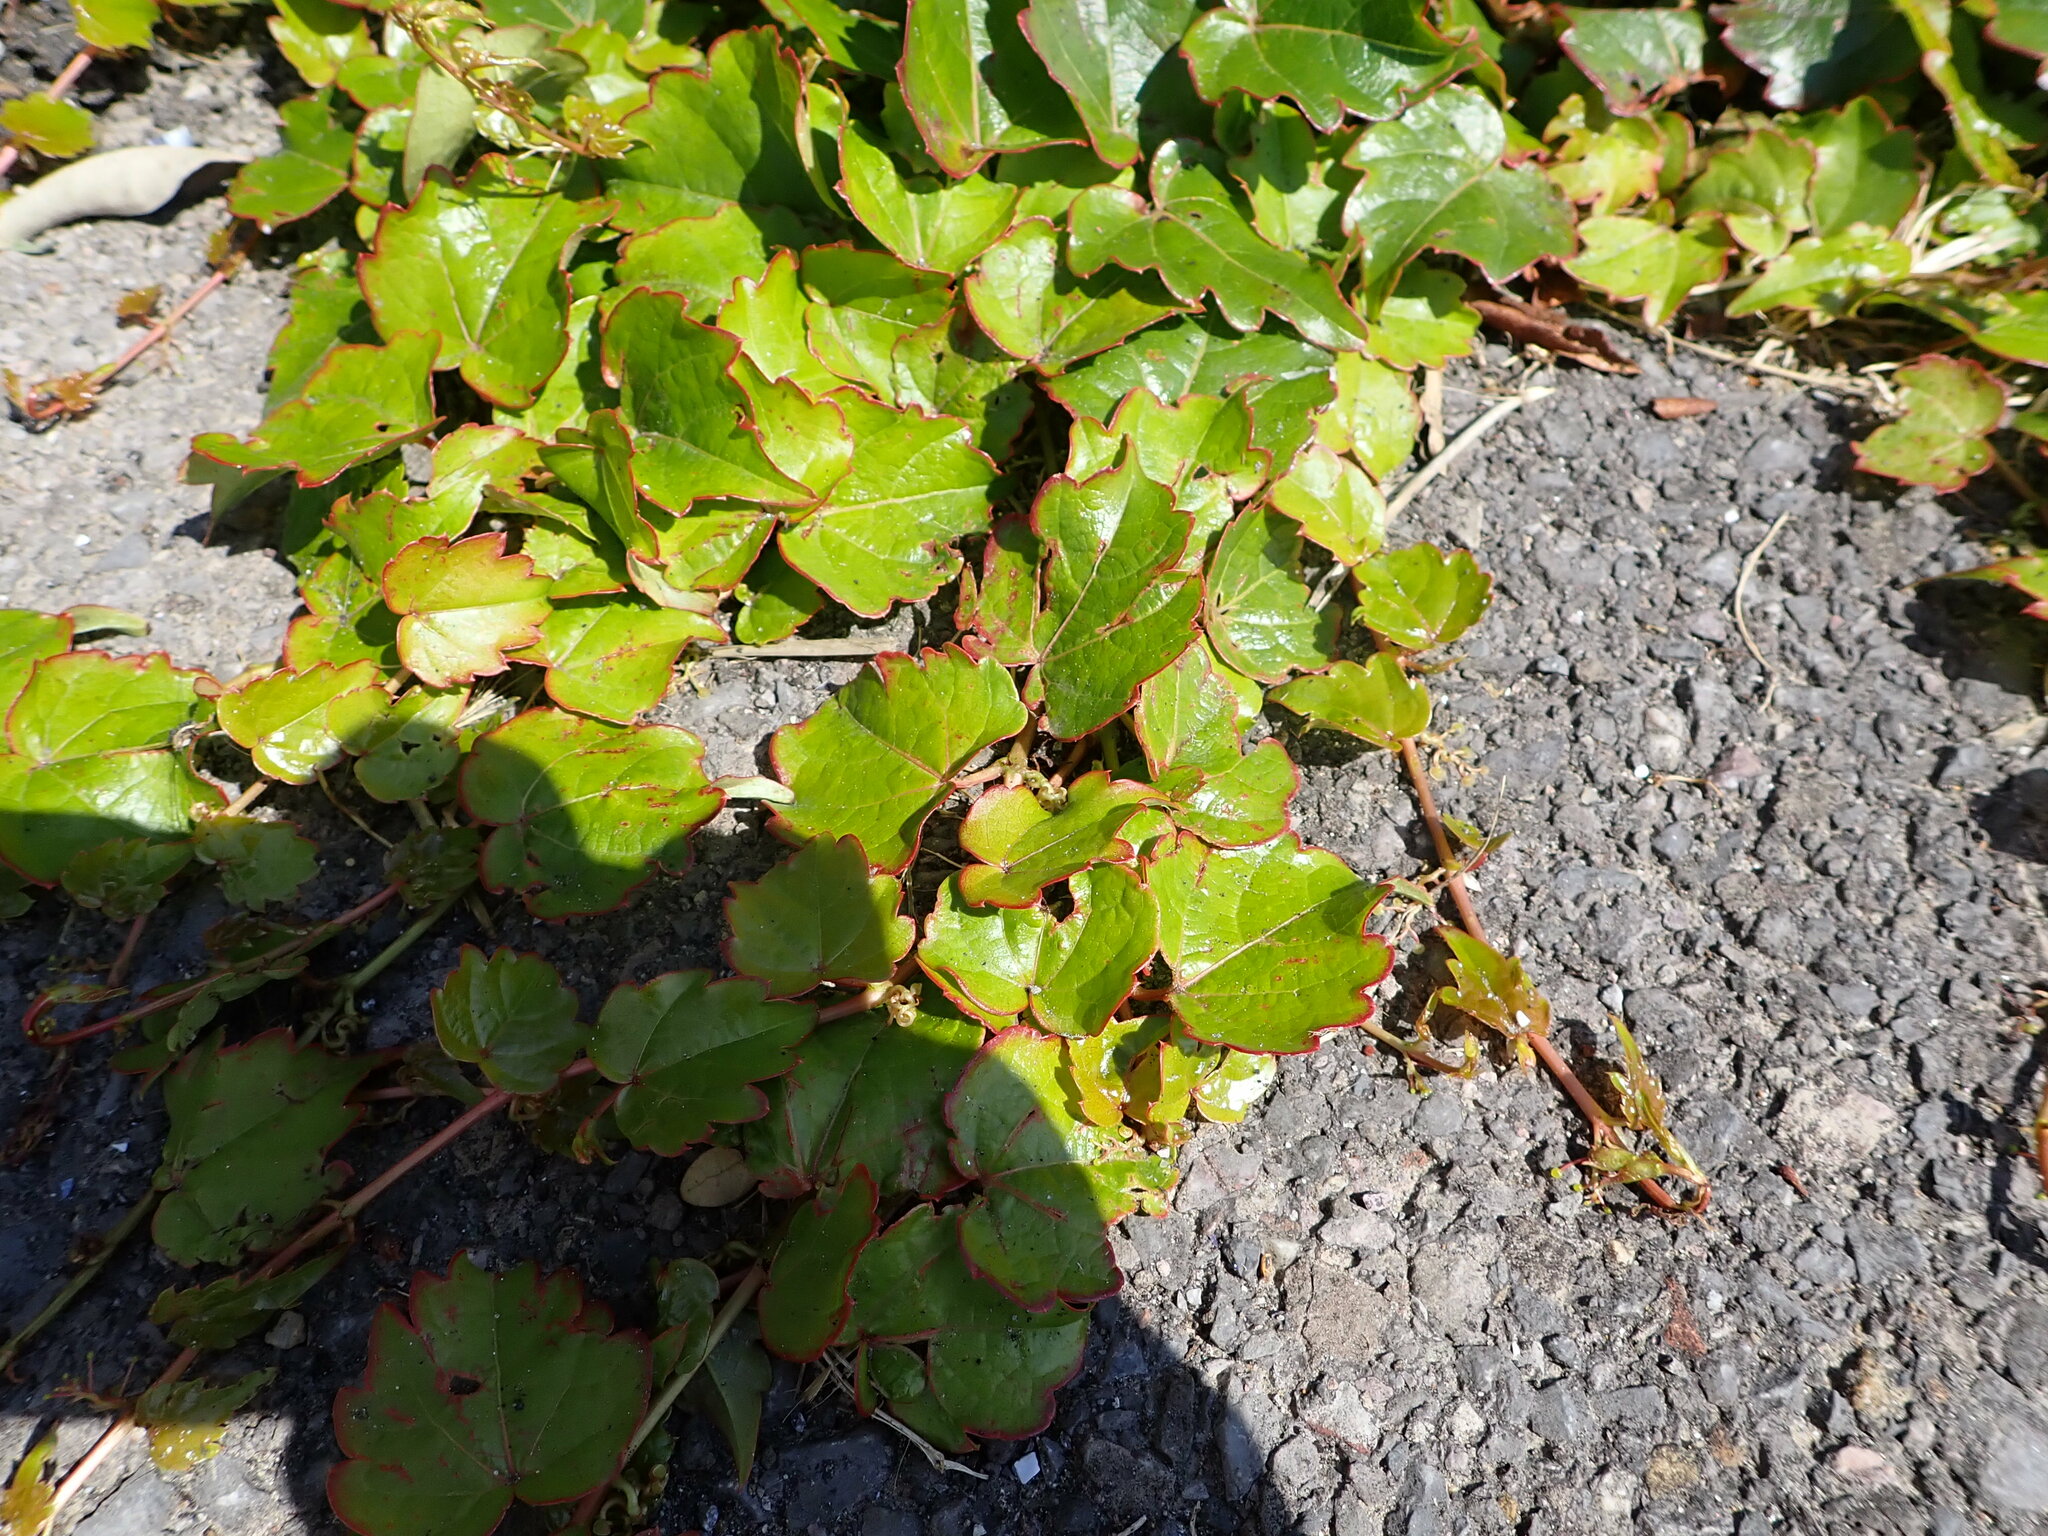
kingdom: Plantae
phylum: Tracheophyta
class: Magnoliopsida
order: Vitales
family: Vitaceae
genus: Parthenocissus
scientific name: Parthenocissus tricuspidata
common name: Boston ivy
